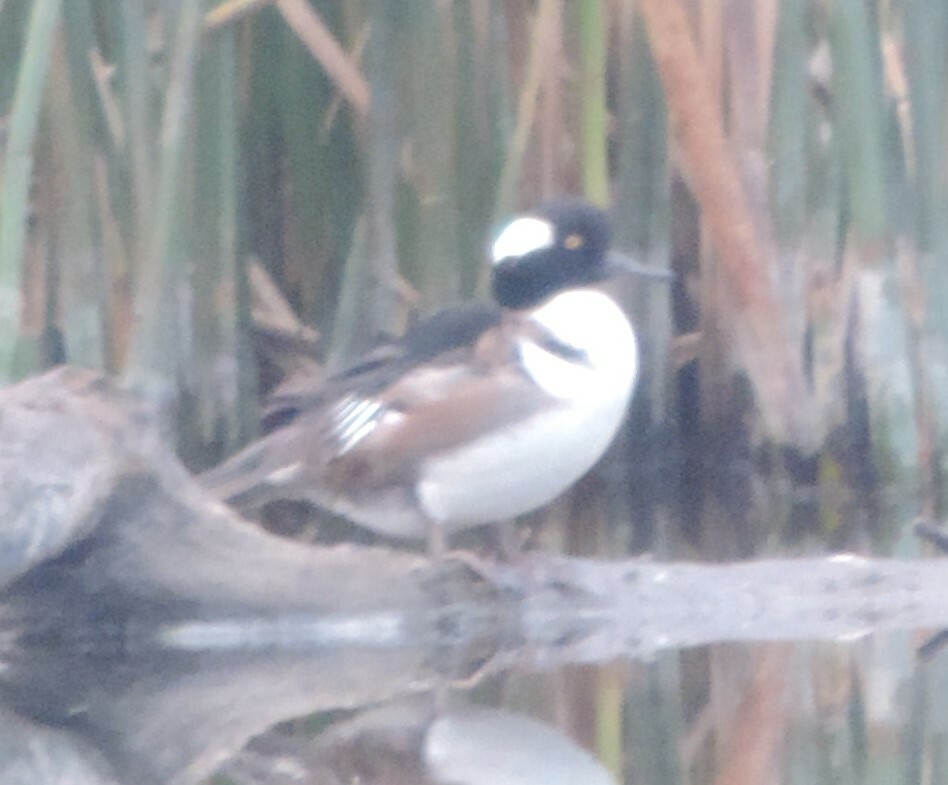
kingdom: Animalia
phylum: Chordata
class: Aves
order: Anseriformes
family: Anatidae
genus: Lophodytes
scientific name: Lophodytes cucullatus
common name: Hooded merganser
